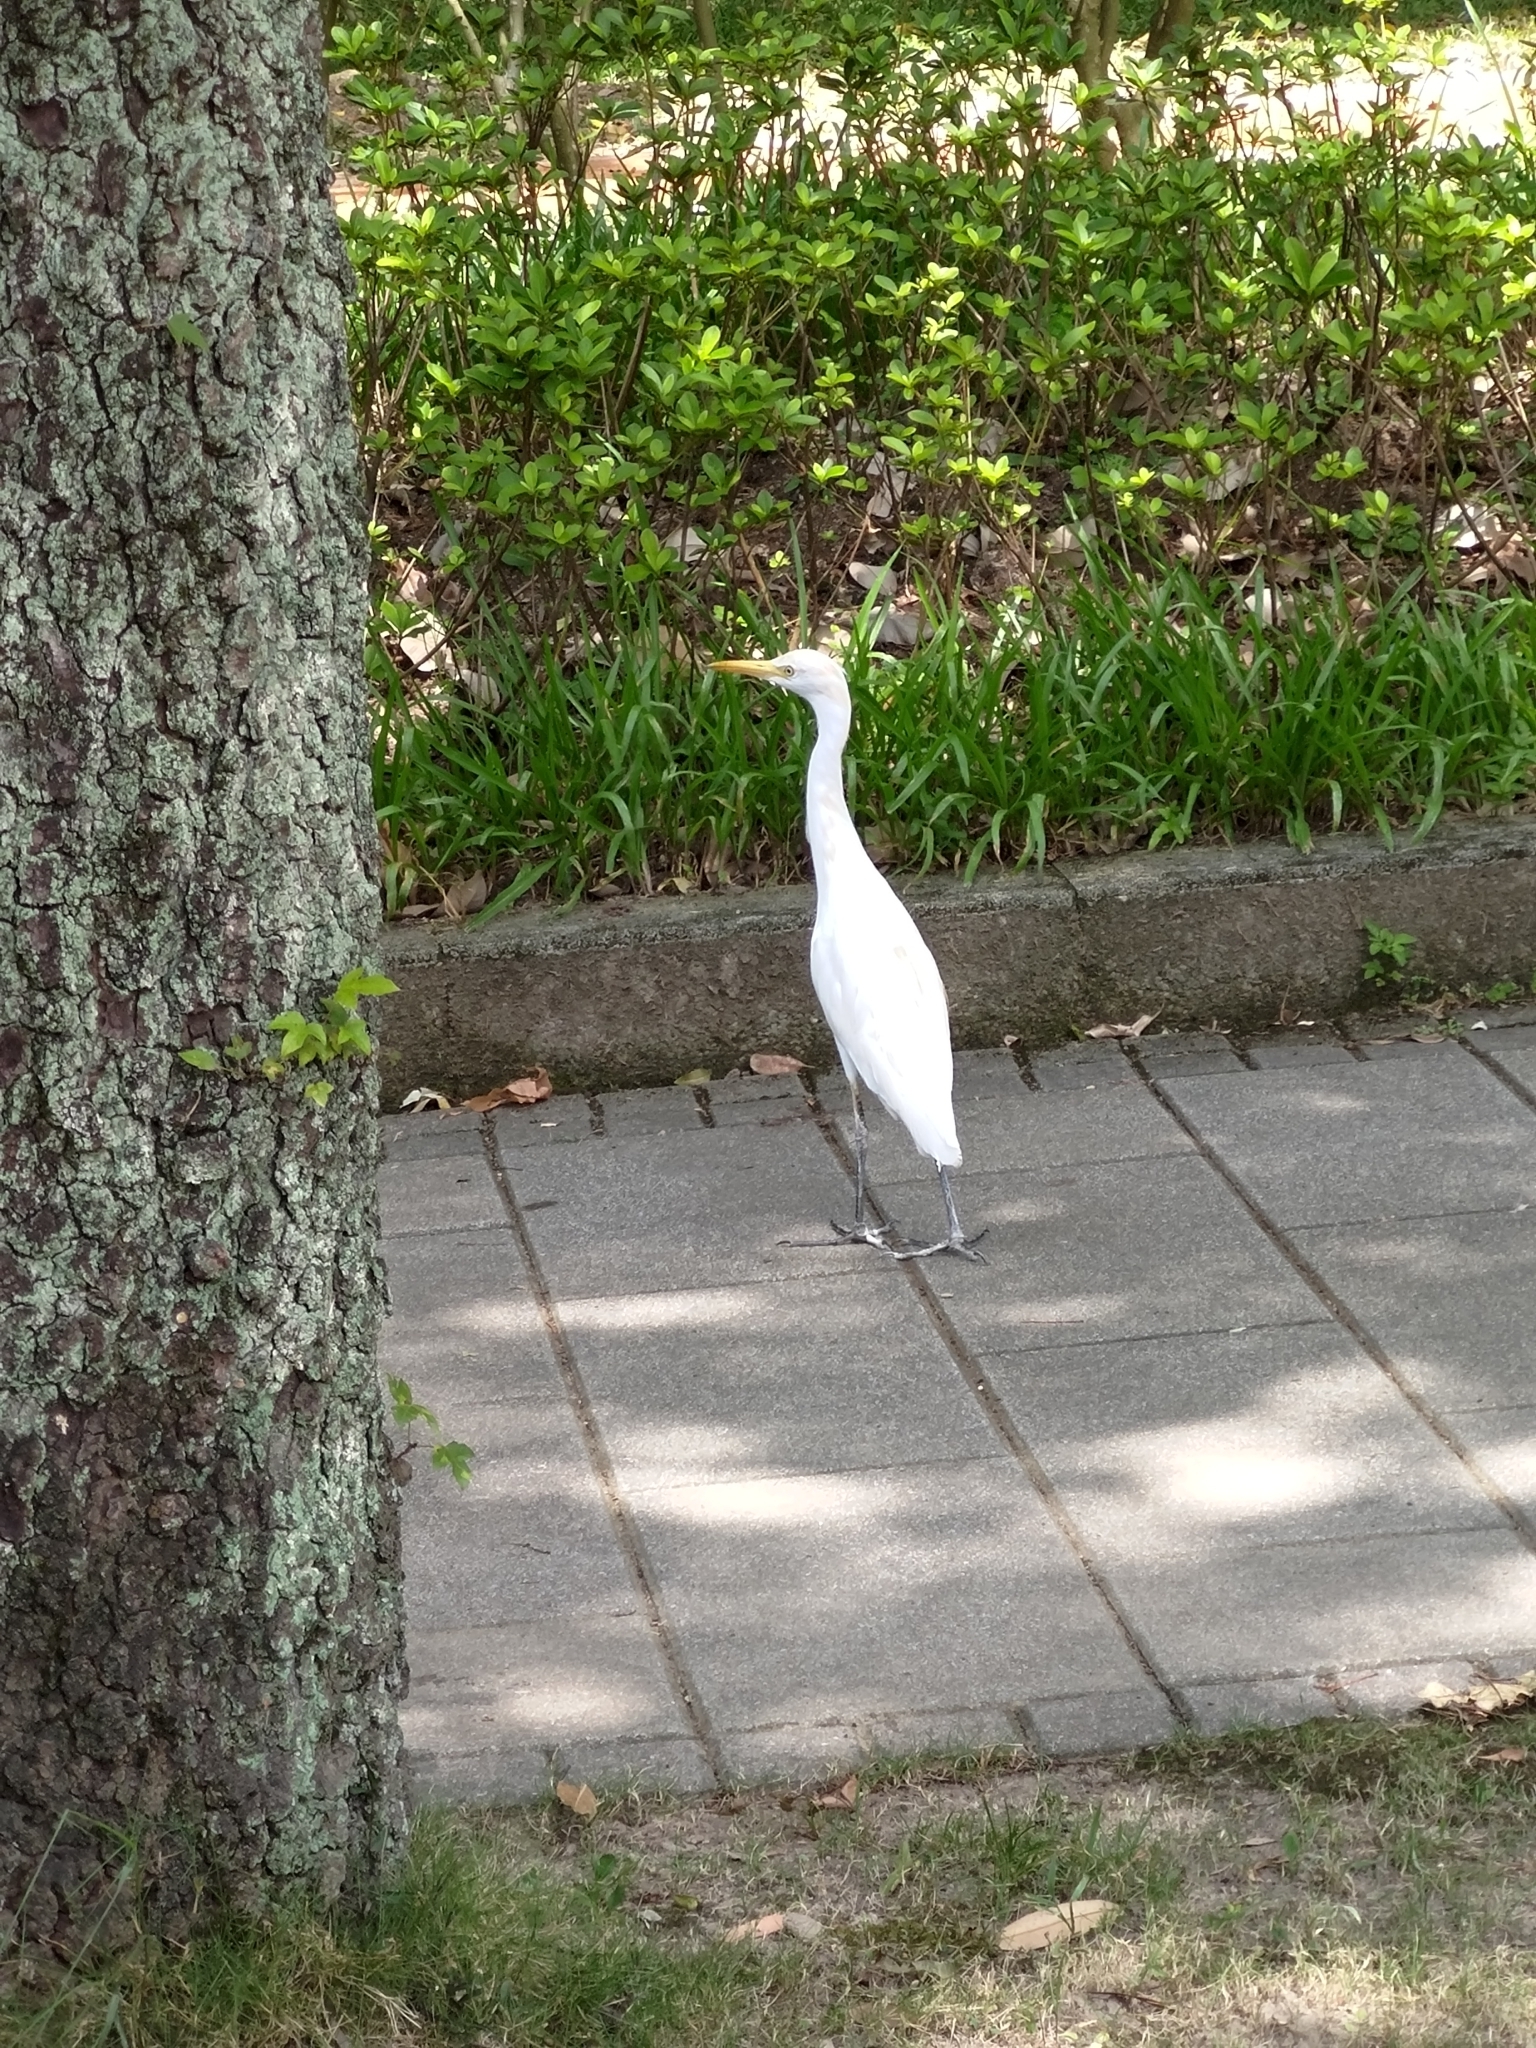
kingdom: Animalia
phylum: Chordata
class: Aves
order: Pelecaniformes
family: Ardeidae
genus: Bubulcus
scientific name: Bubulcus coromandus
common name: Eastern cattle egret
